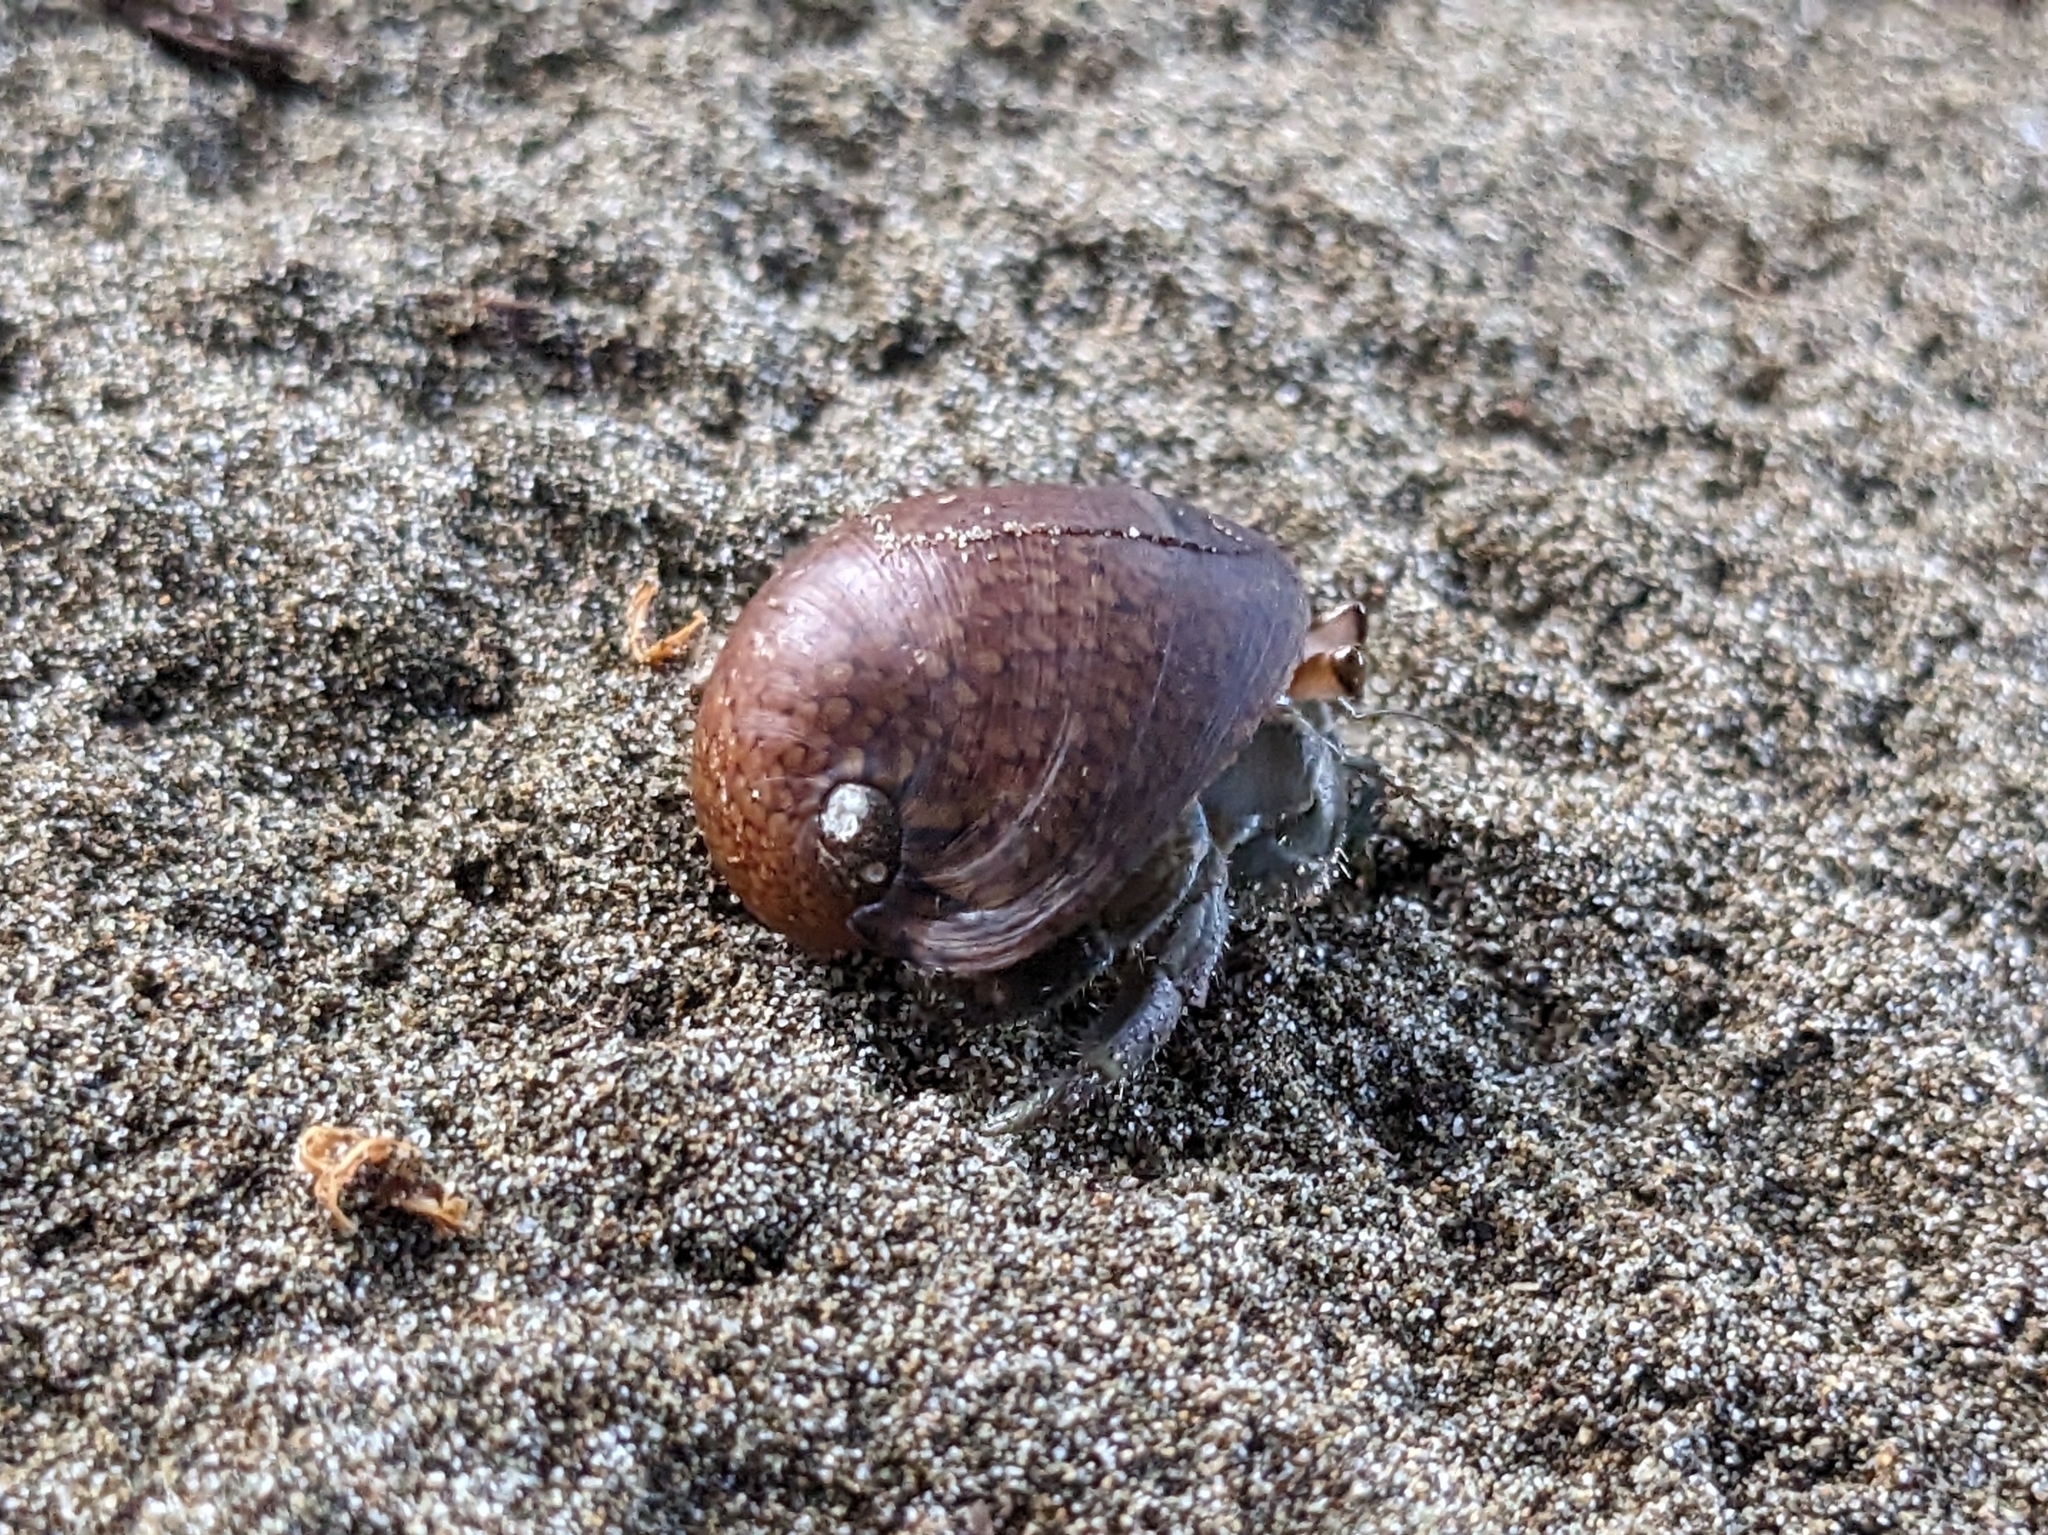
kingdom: Animalia
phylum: Arthropoda
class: Malacostraca
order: Decapoda
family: Coenobitidae
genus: Coenobita
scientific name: Coenobita compressus
